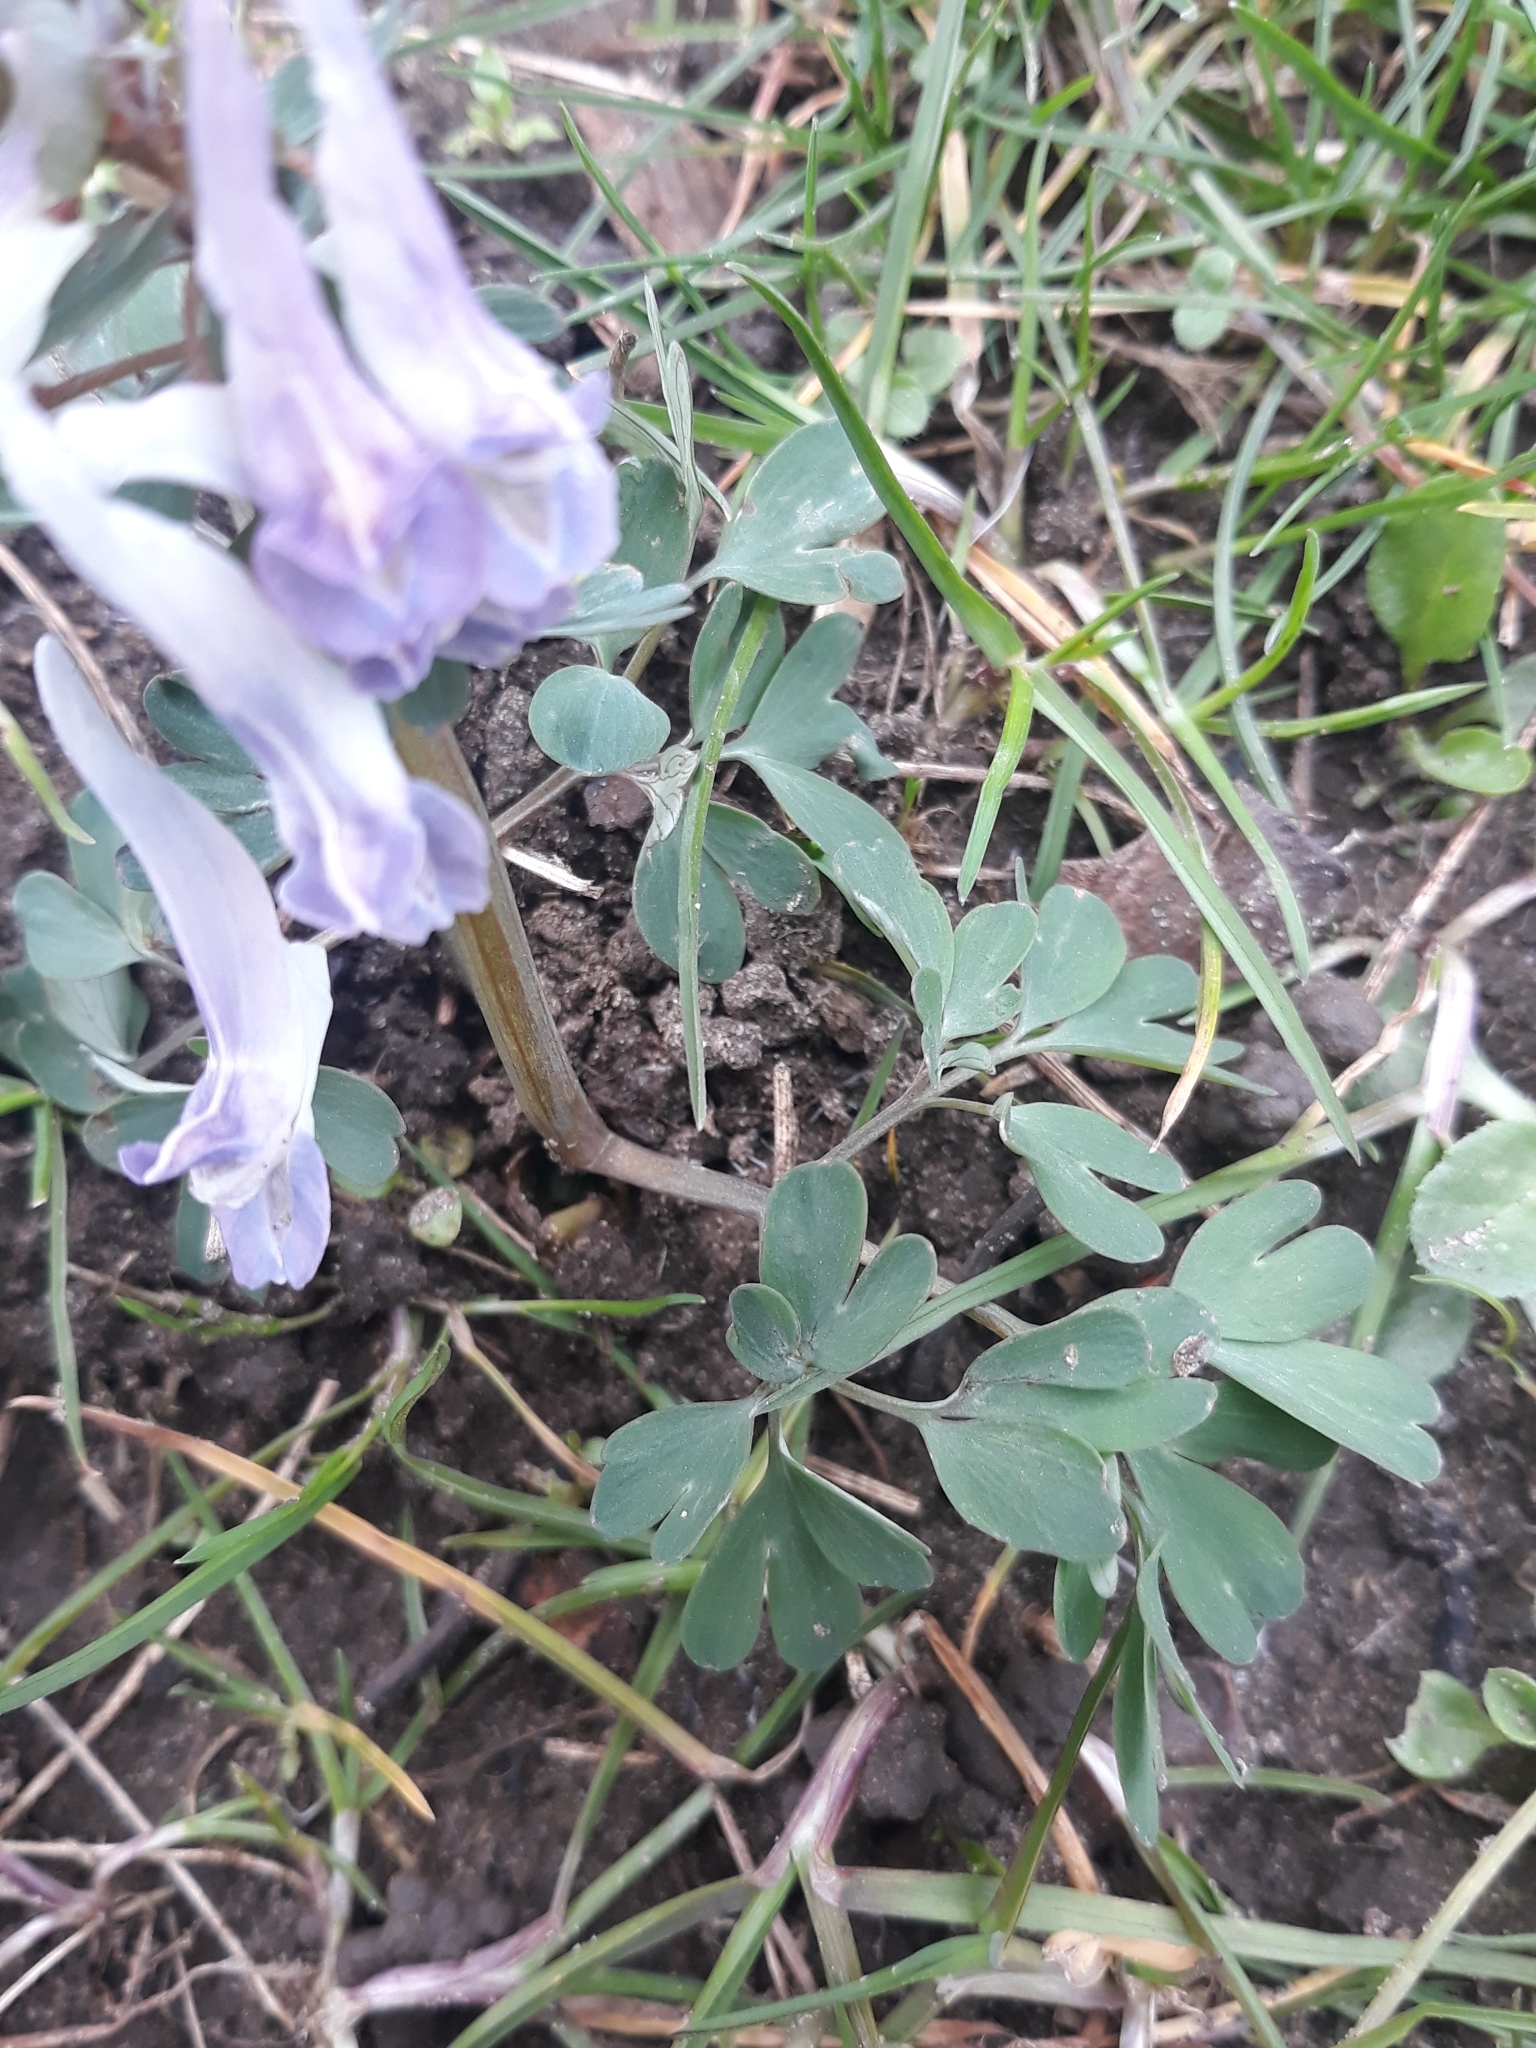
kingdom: Plantae
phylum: Tracheophyta
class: Magnoliopsida
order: Ranunculales
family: Papaveraceae
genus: Corydalis
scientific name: Corydalis solida
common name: Bird-in-a-bush
